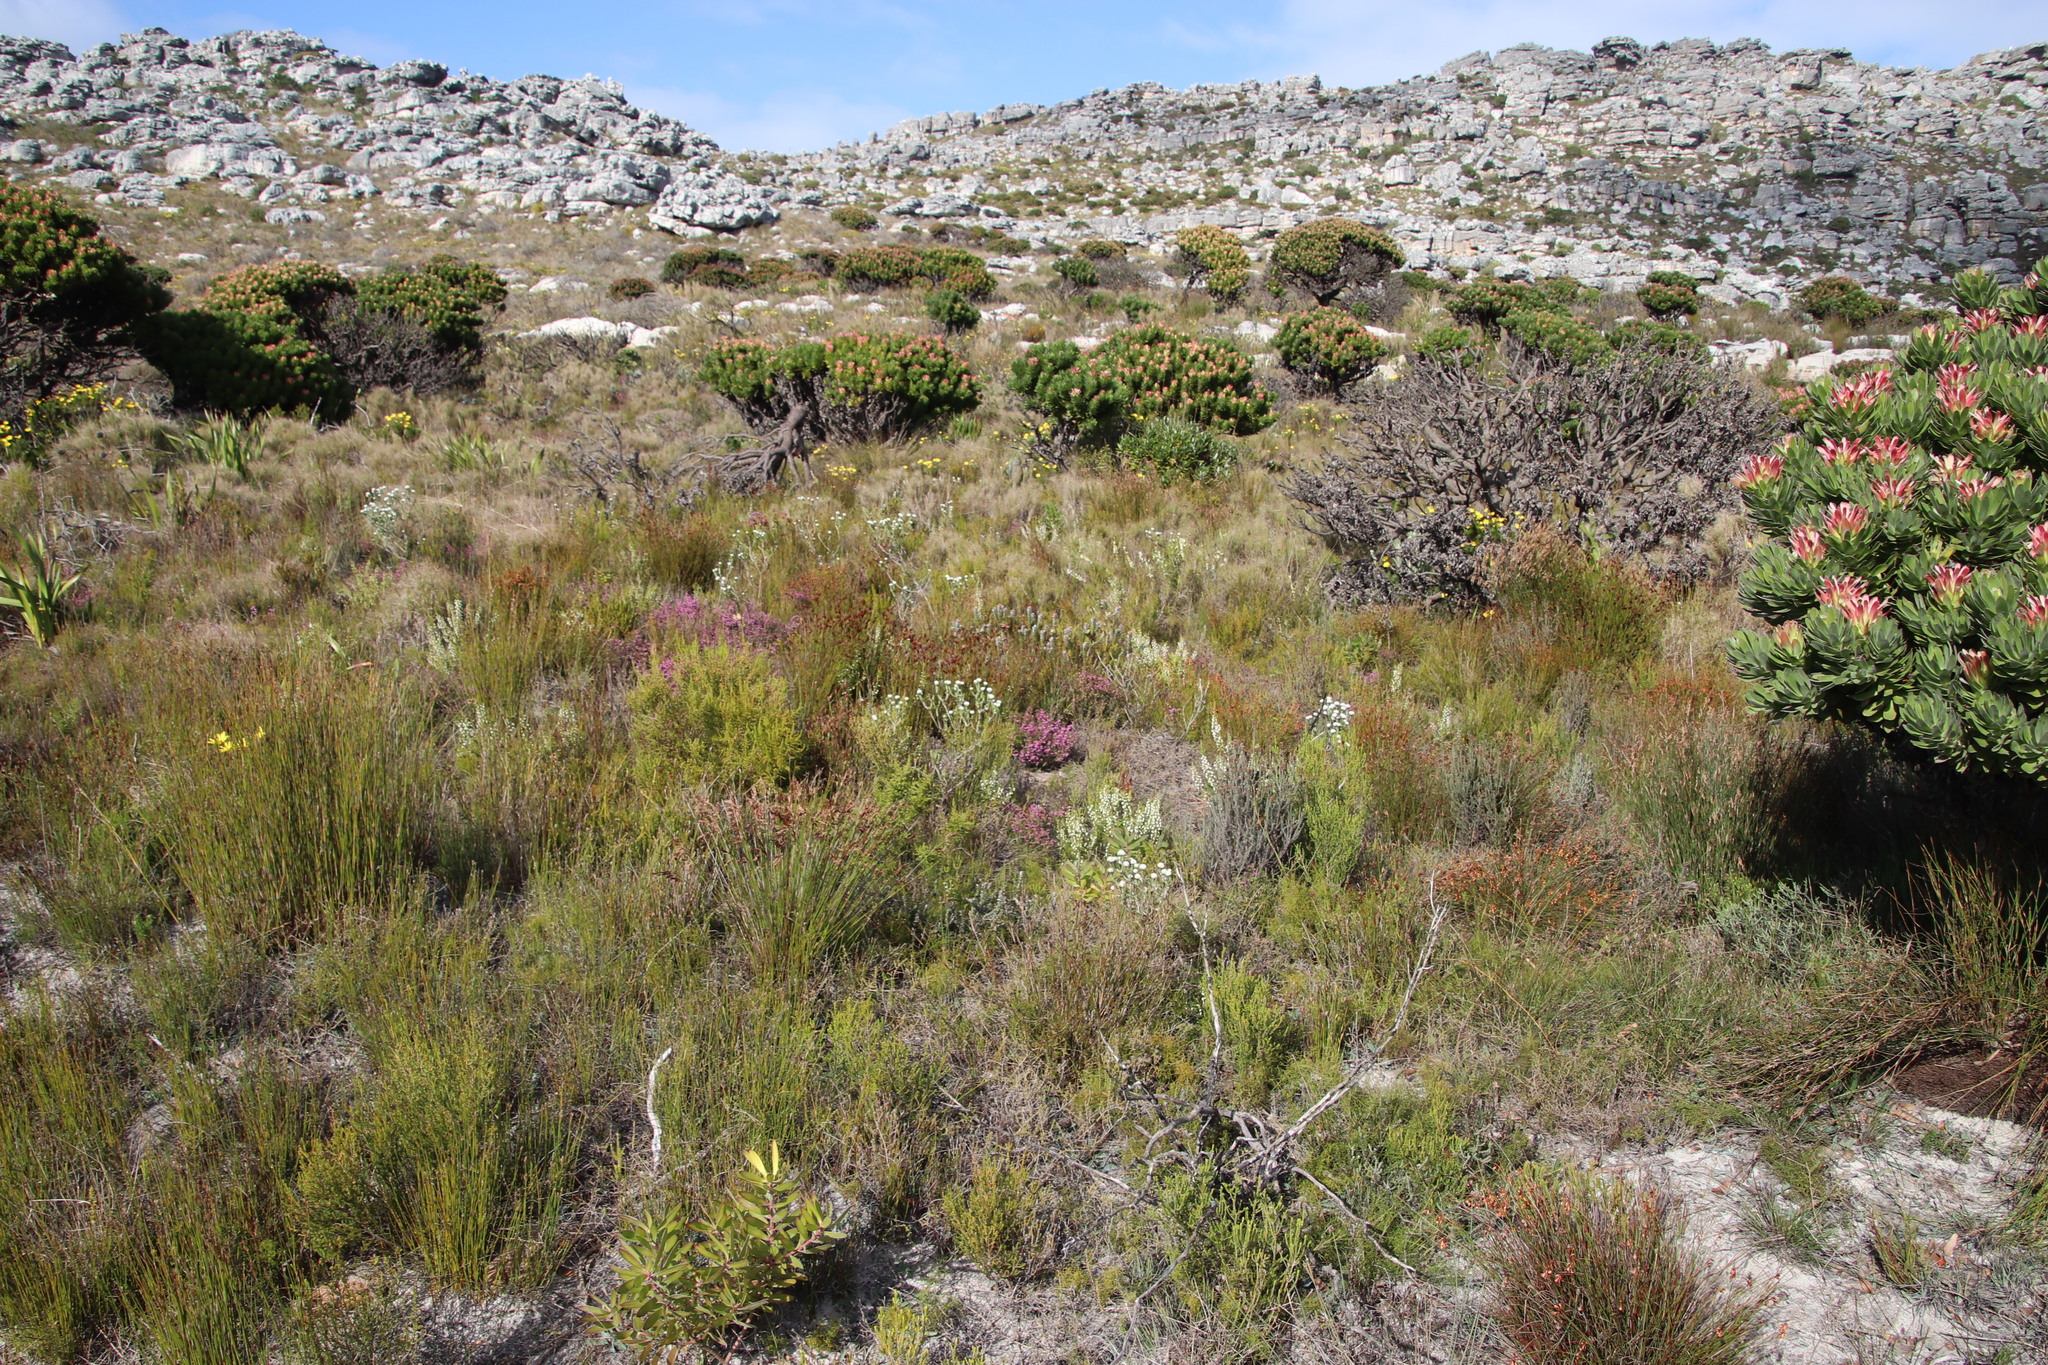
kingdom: Plantae
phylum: Tracheophyta
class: Magnoliopsida
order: Proteales
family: Proteaceae
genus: Mimetes
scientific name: Mimetes fimbriifolius
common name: Fringed bottlebrush
